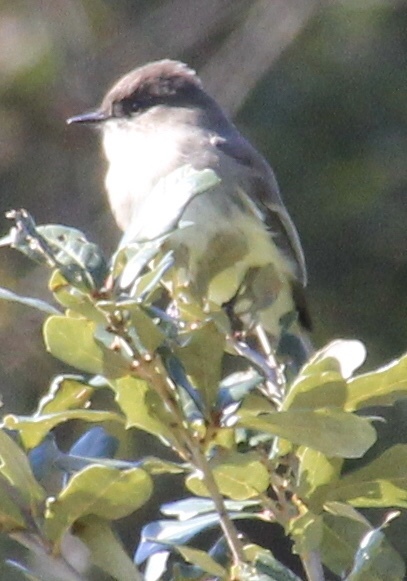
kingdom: Animalia
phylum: Chordata
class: Aves
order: Passeriformes
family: Tyrannidae
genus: Sayornis
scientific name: Sayornis phoebe
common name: Eastern phoebe
